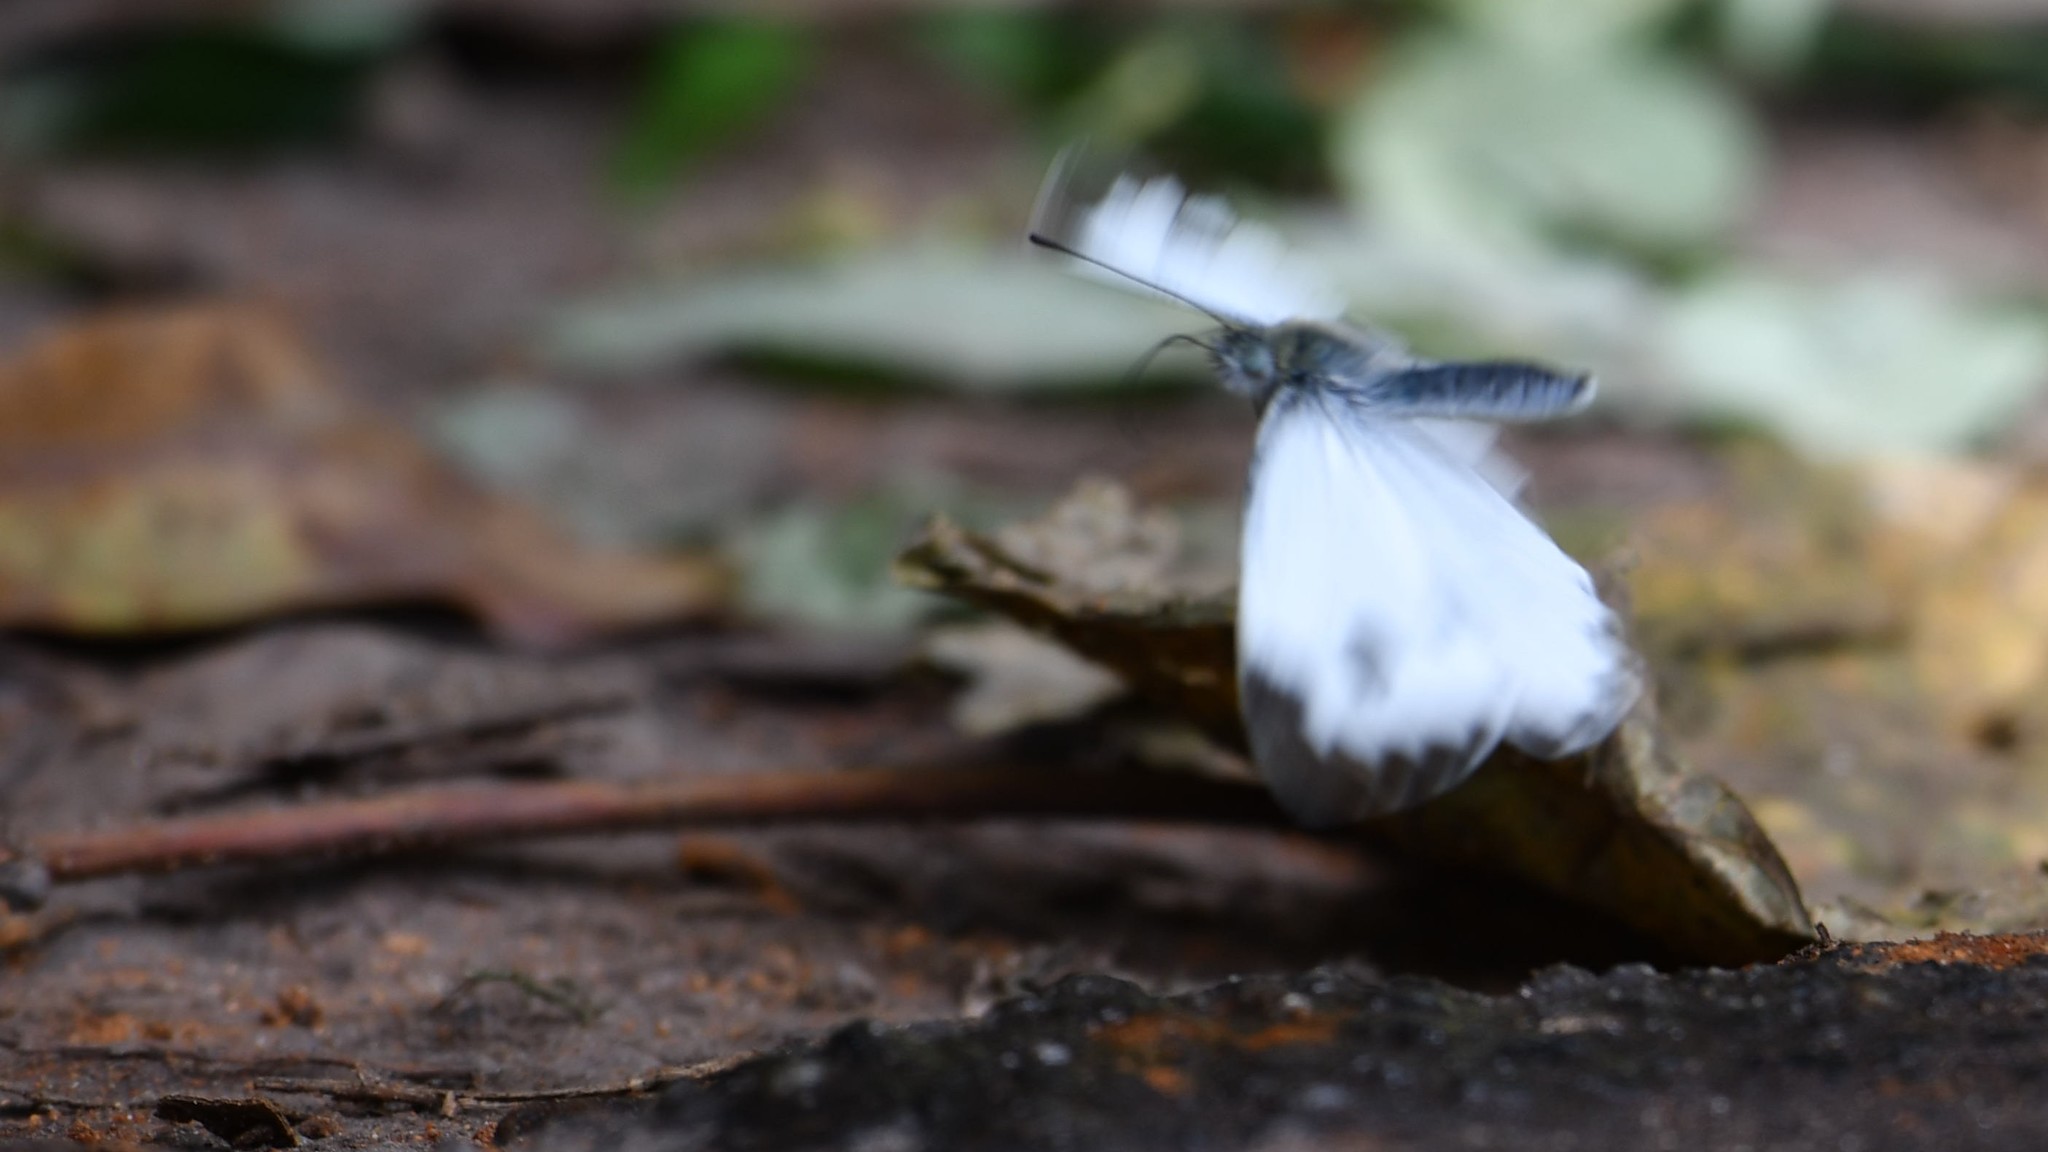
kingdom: Animalia
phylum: Arthropoda
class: Insecta
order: Lepidoptera
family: Pieridae
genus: Pieris
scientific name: Pieris canidia
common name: Indian cabbage white
